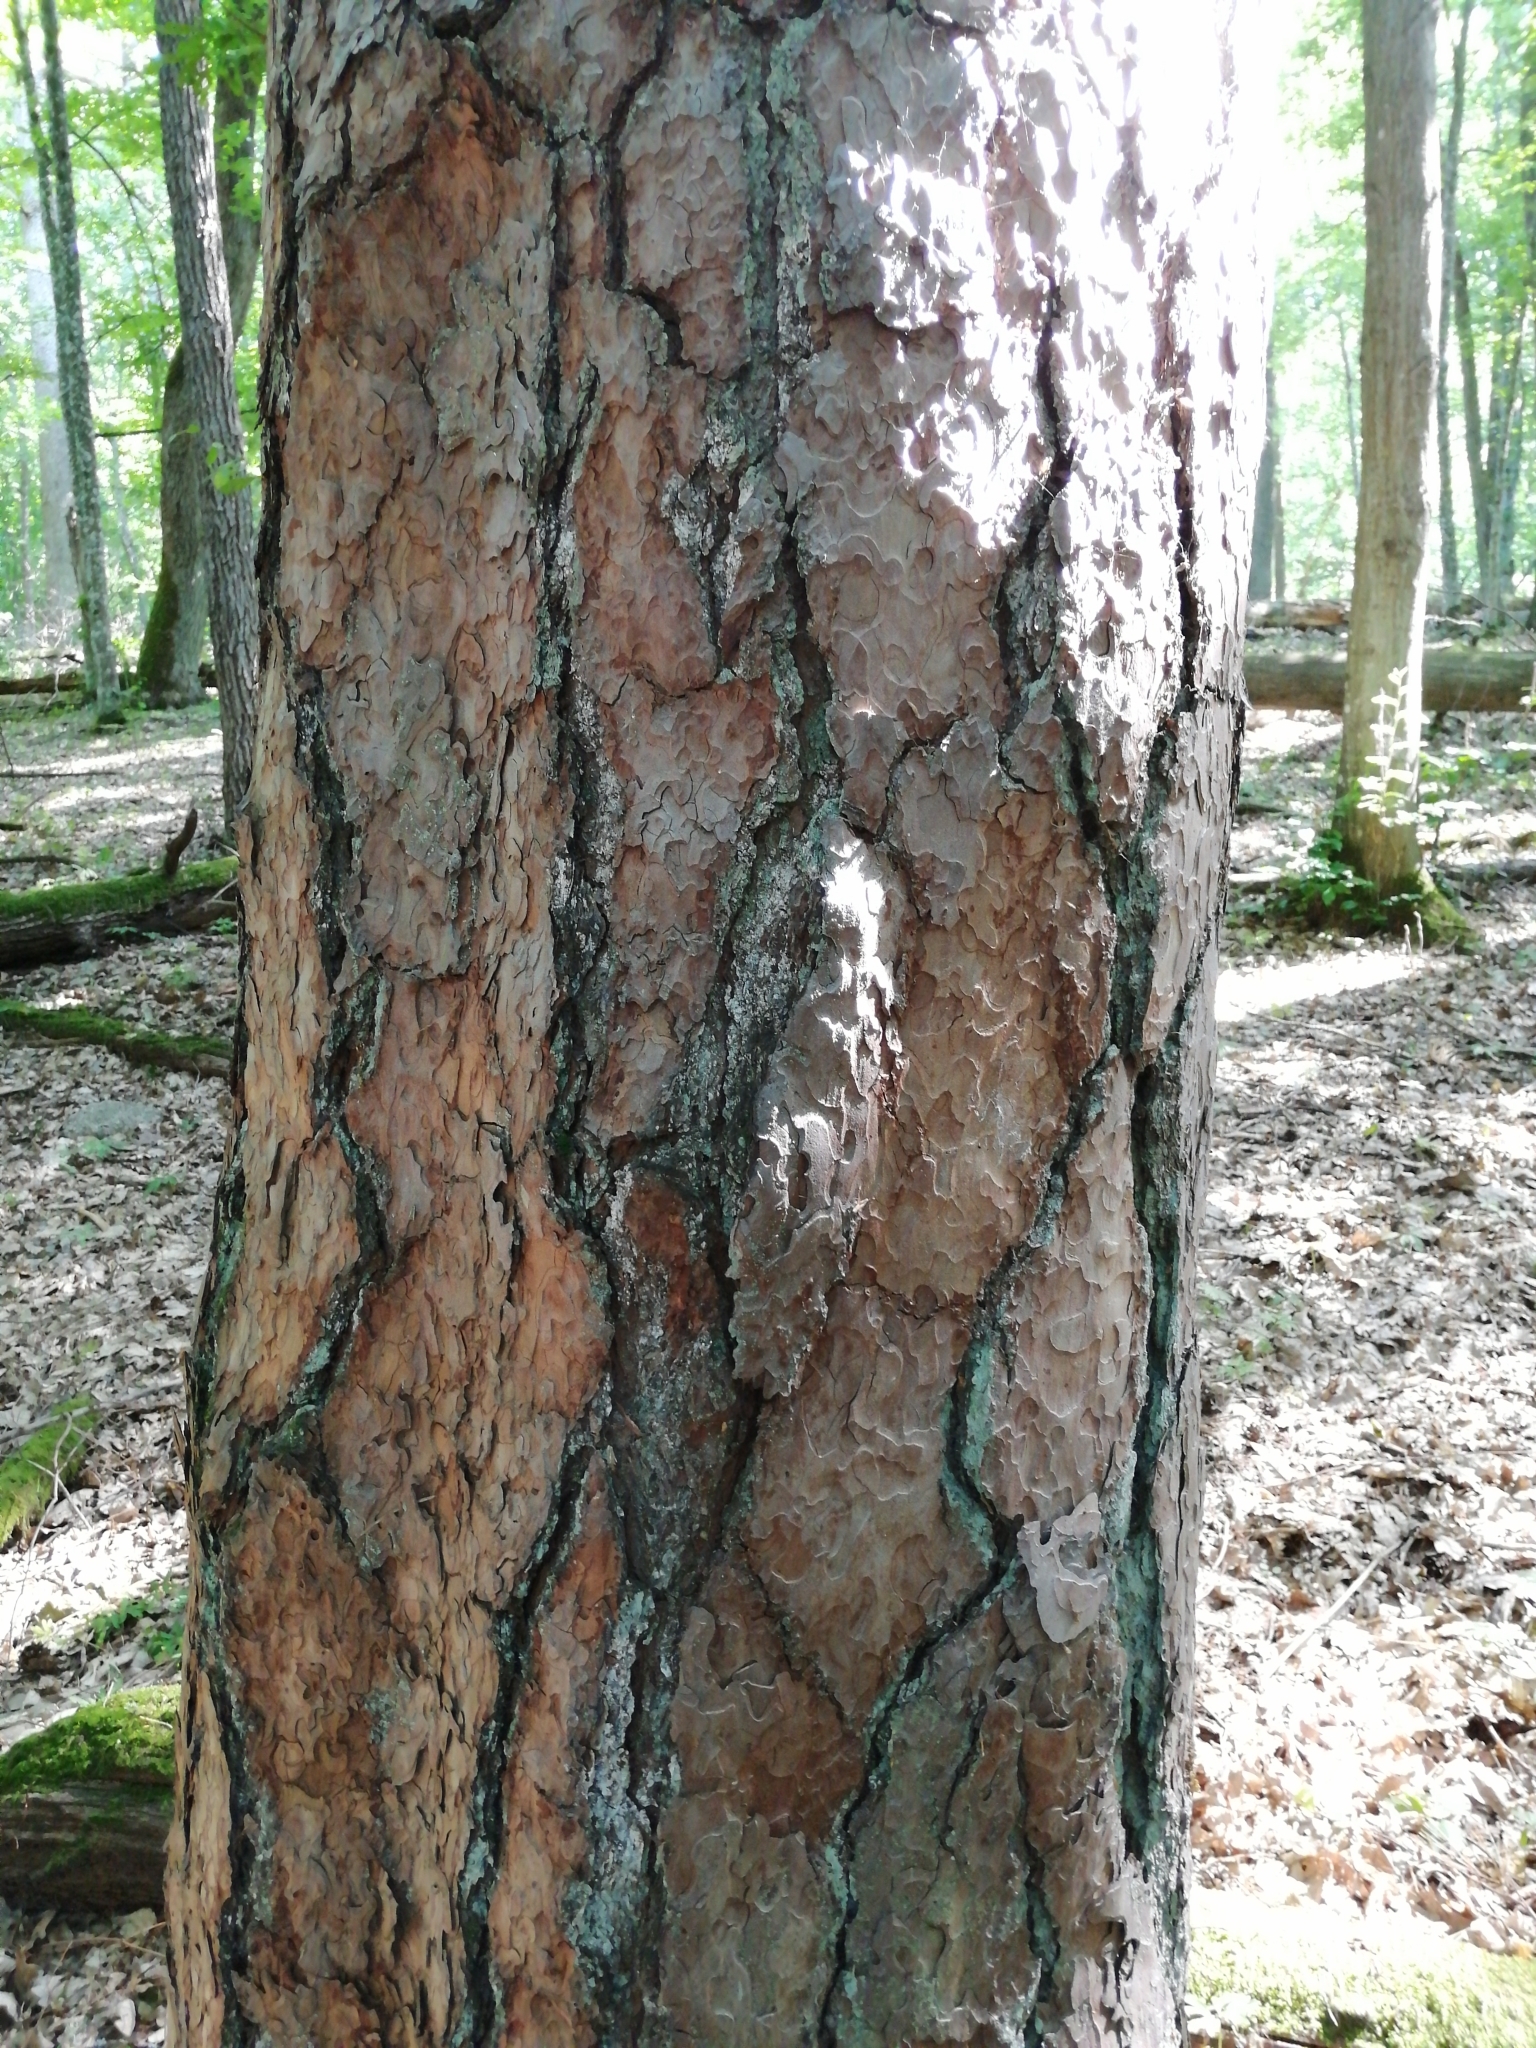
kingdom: Plantae
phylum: Tracheophyta
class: Pinopsida
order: Pinales
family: Pinaceae
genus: Pinus
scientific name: Pinus sylvestris
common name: Scots pine
